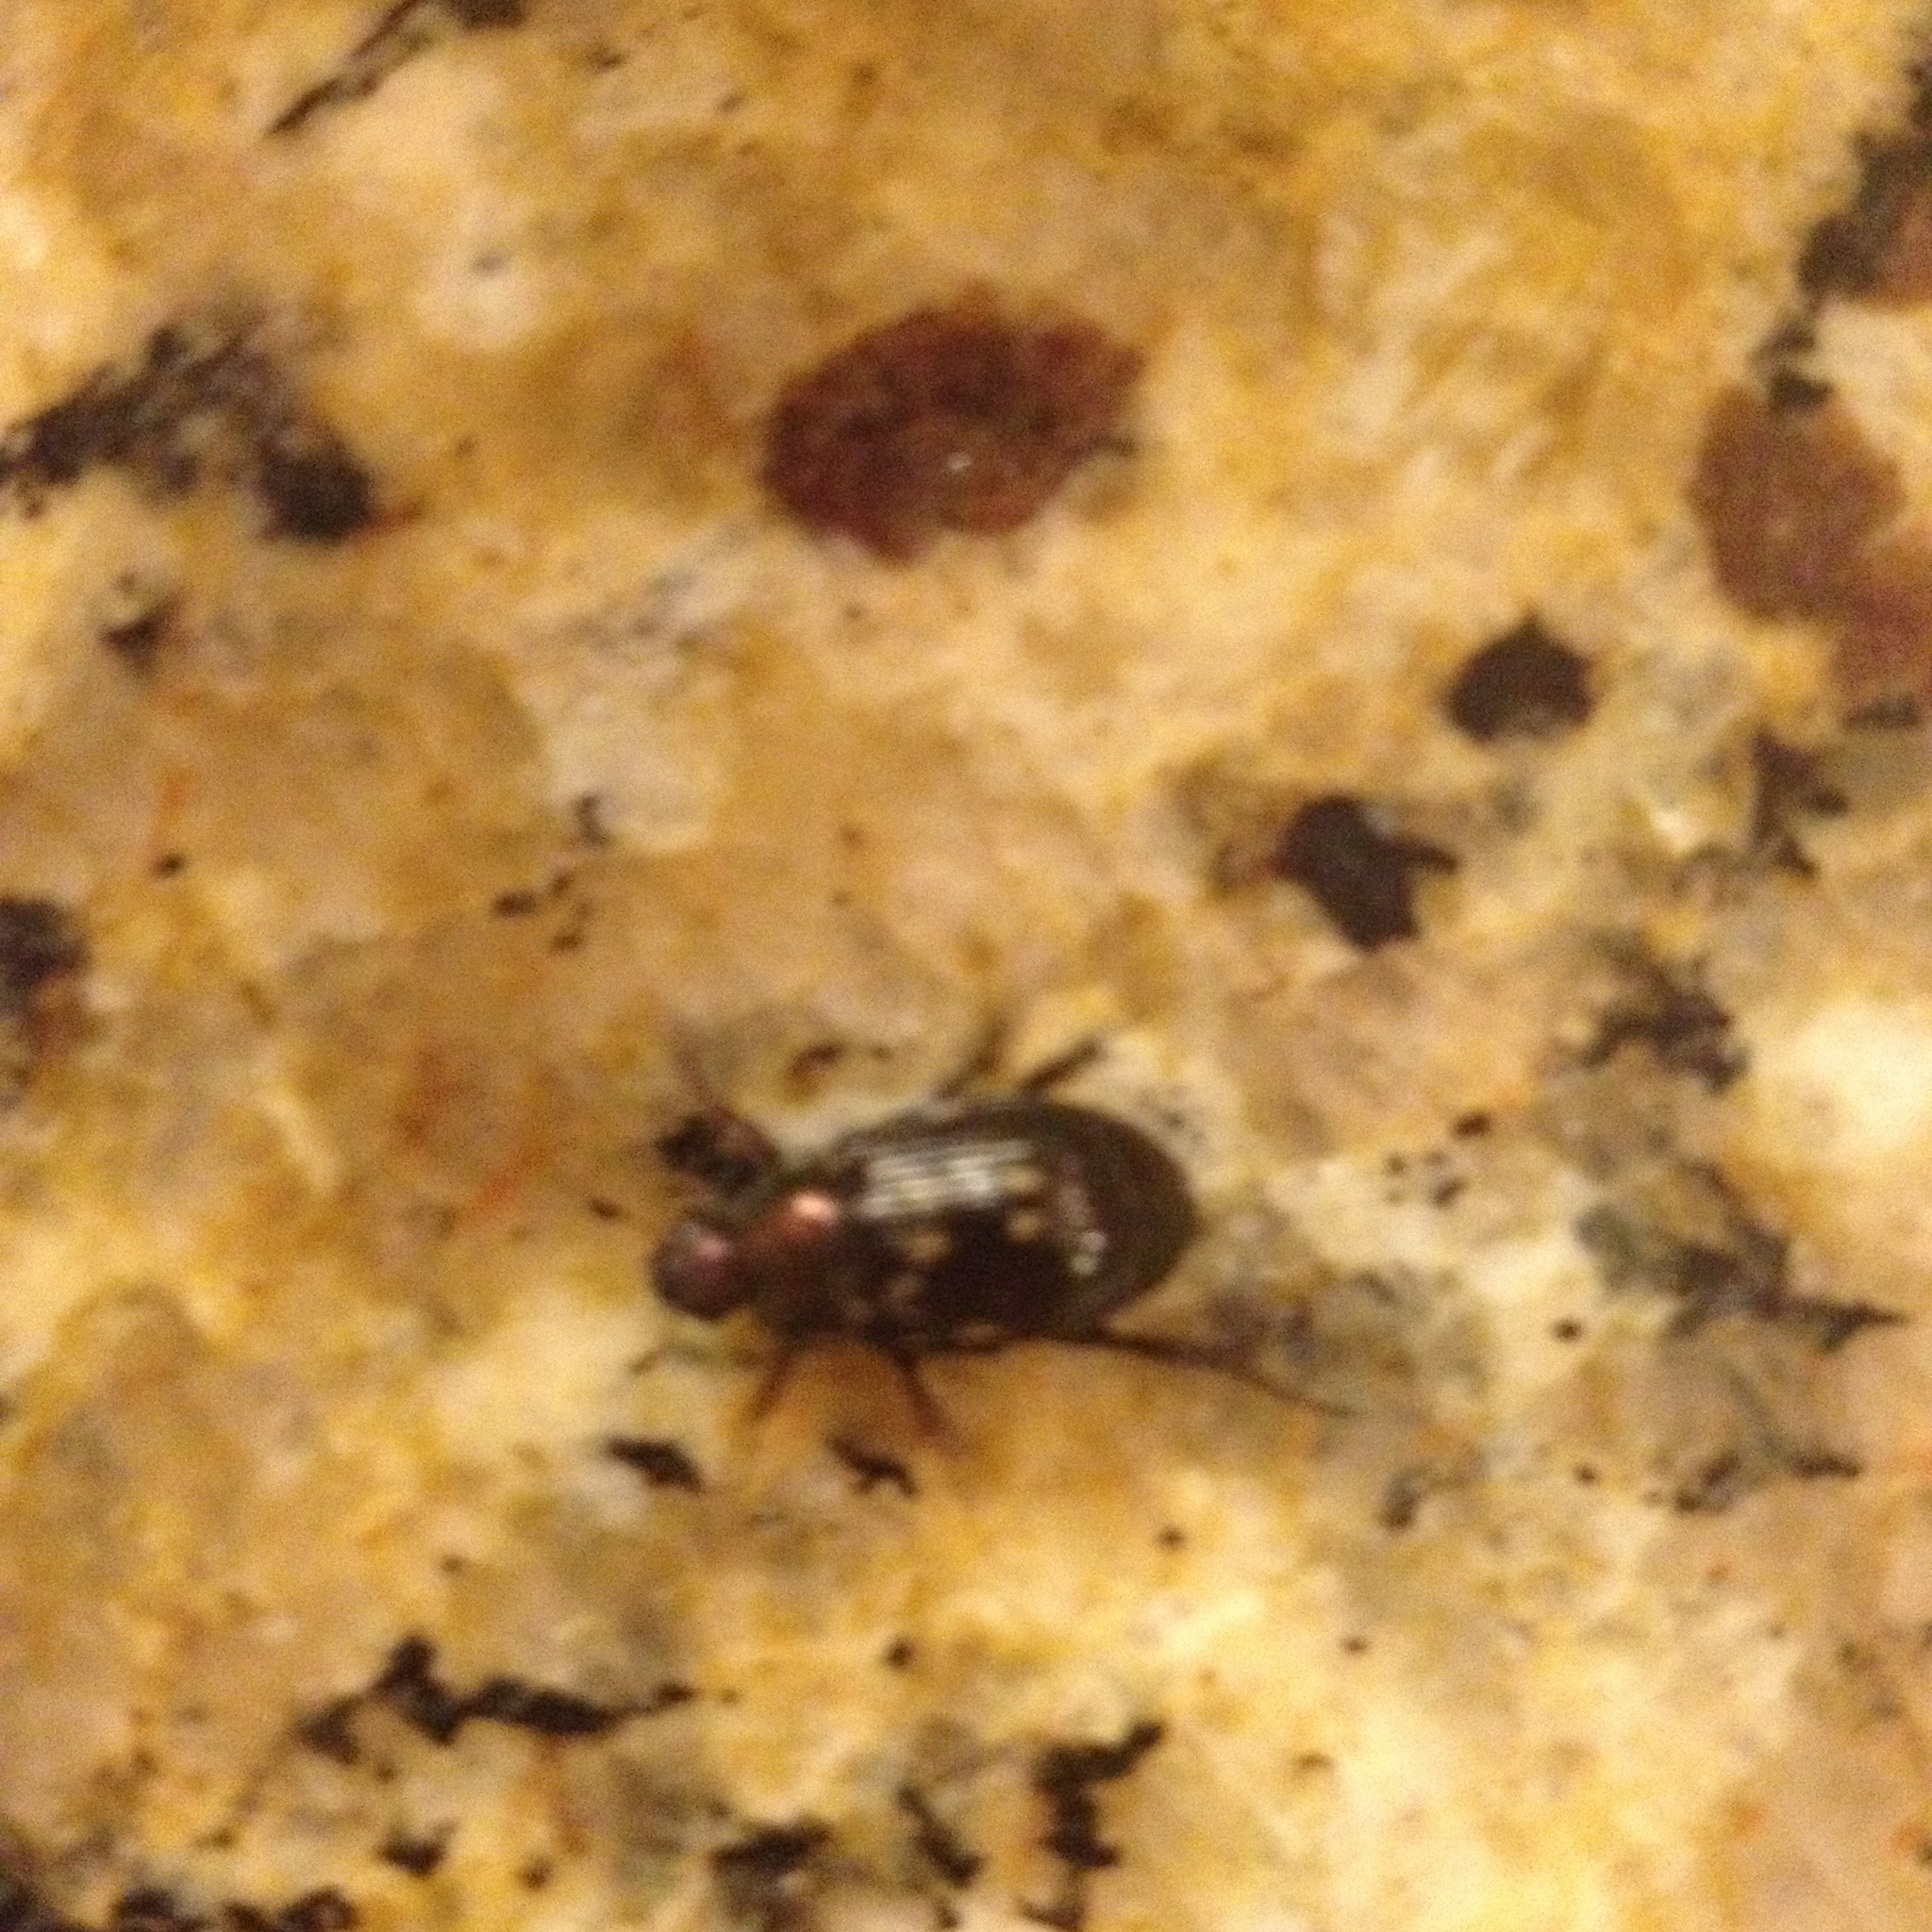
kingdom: Animalia
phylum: Arthropoda
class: Insecta
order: Coleoptera
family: Scarabaeidae
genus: Exomala
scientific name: Exomala orientalis
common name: Oriental beetle
